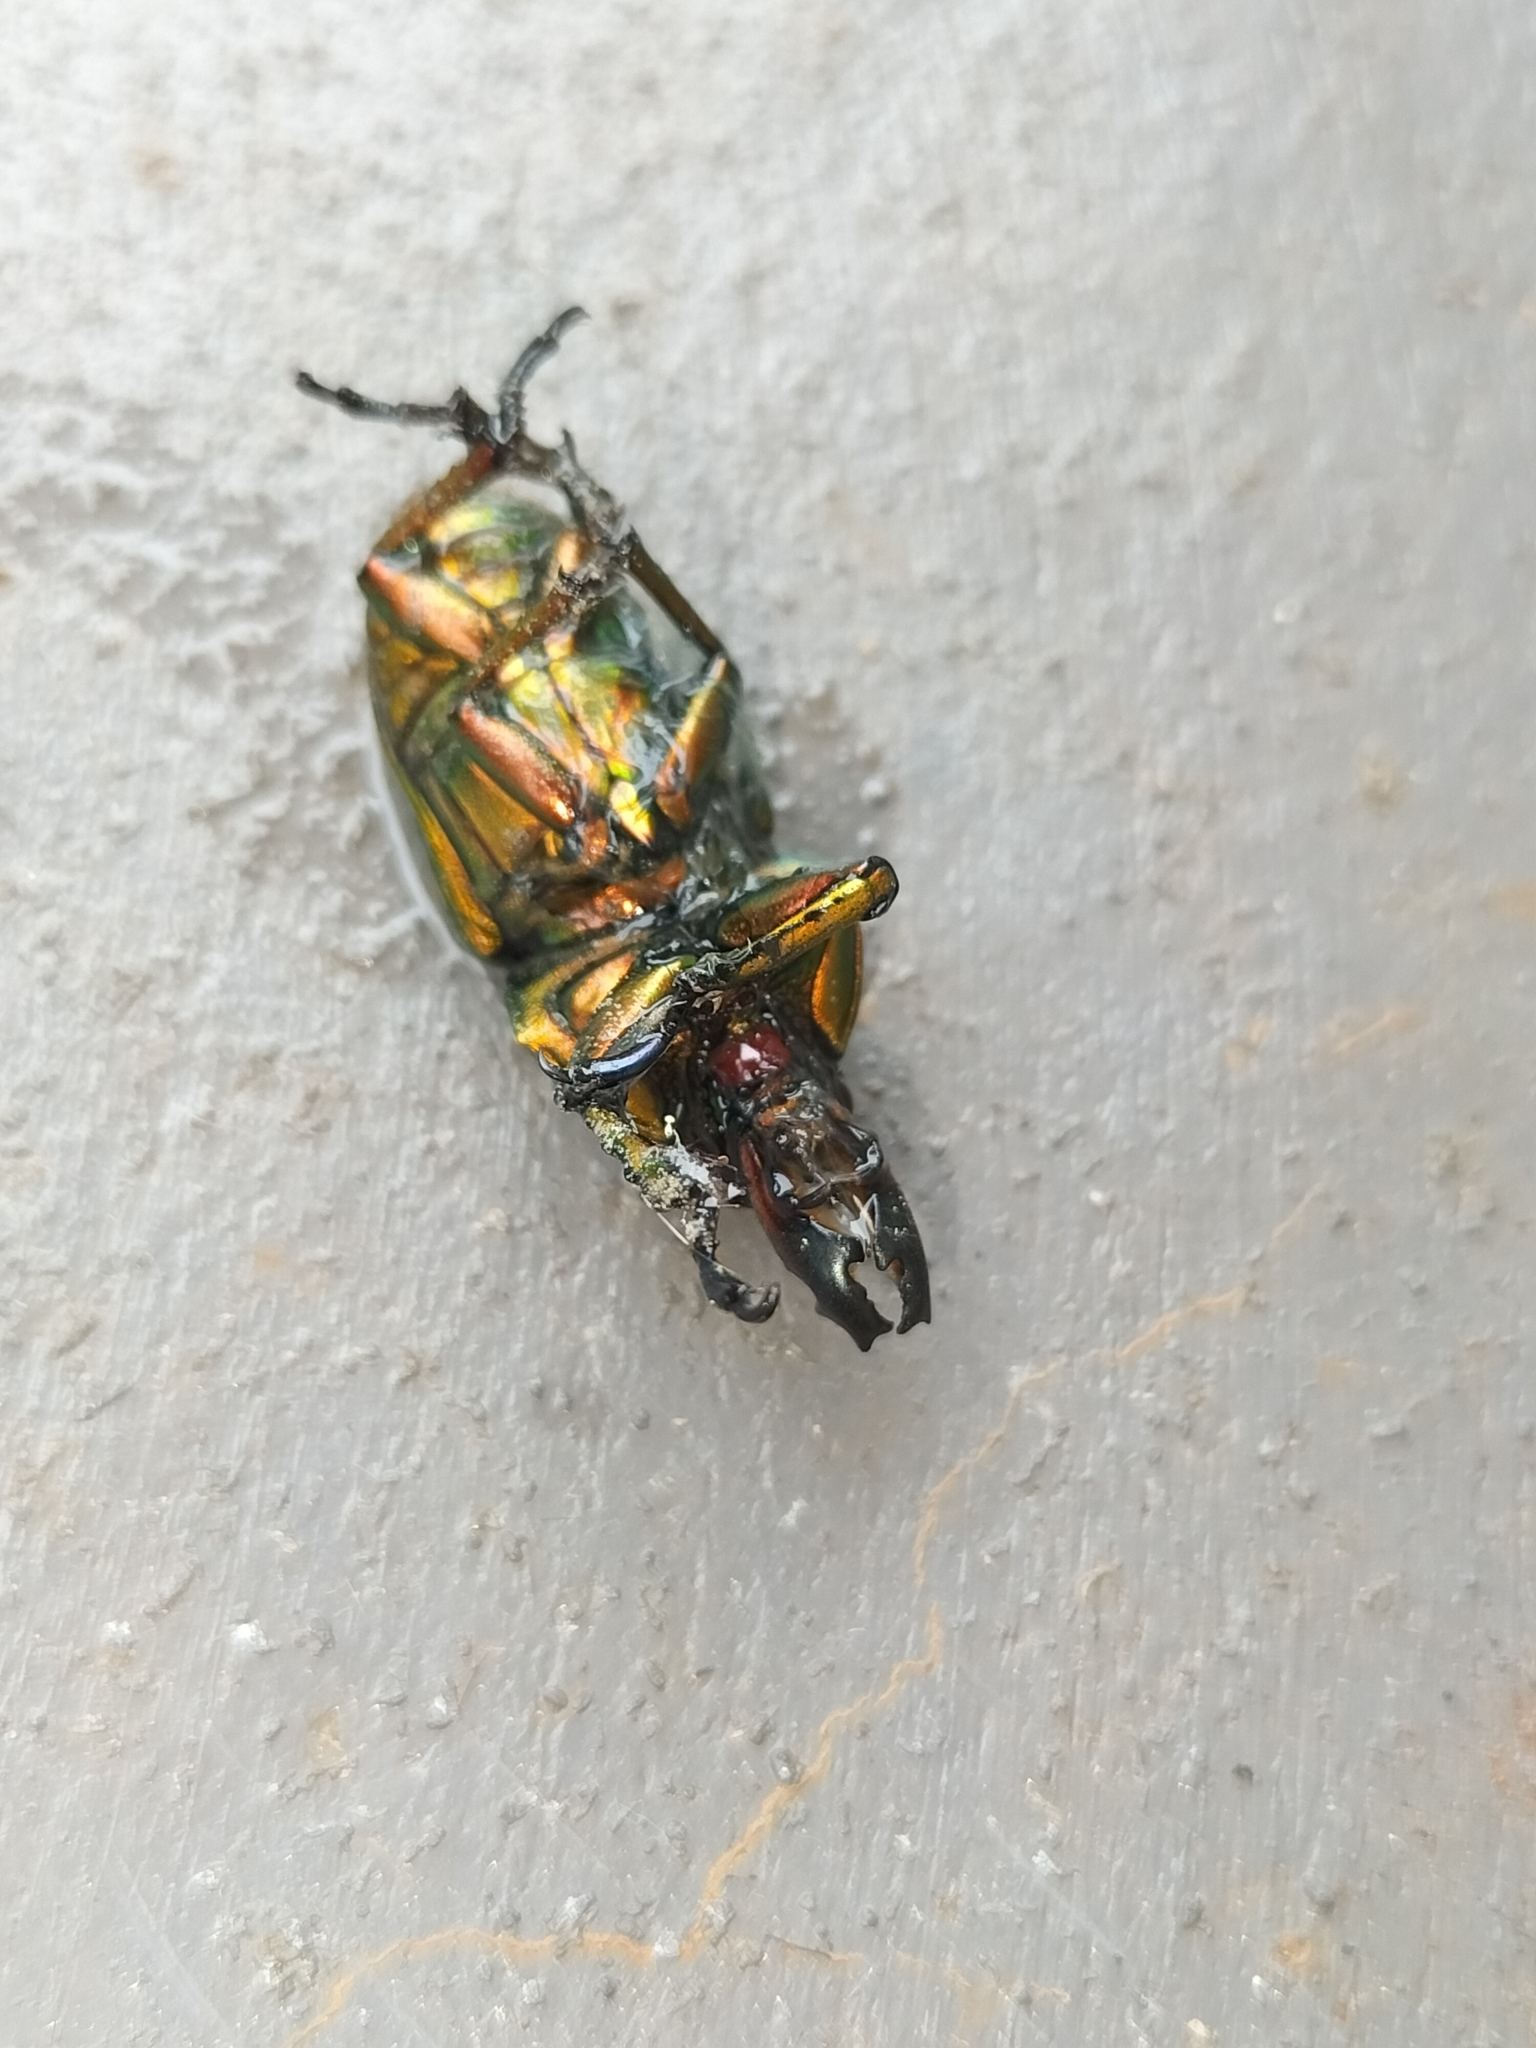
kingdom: Animalia
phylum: Arthropoda
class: Insecta
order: Coleoptera
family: Lucanidae
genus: Lamprima
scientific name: Lamprima aurata
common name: Golden stag beetle
